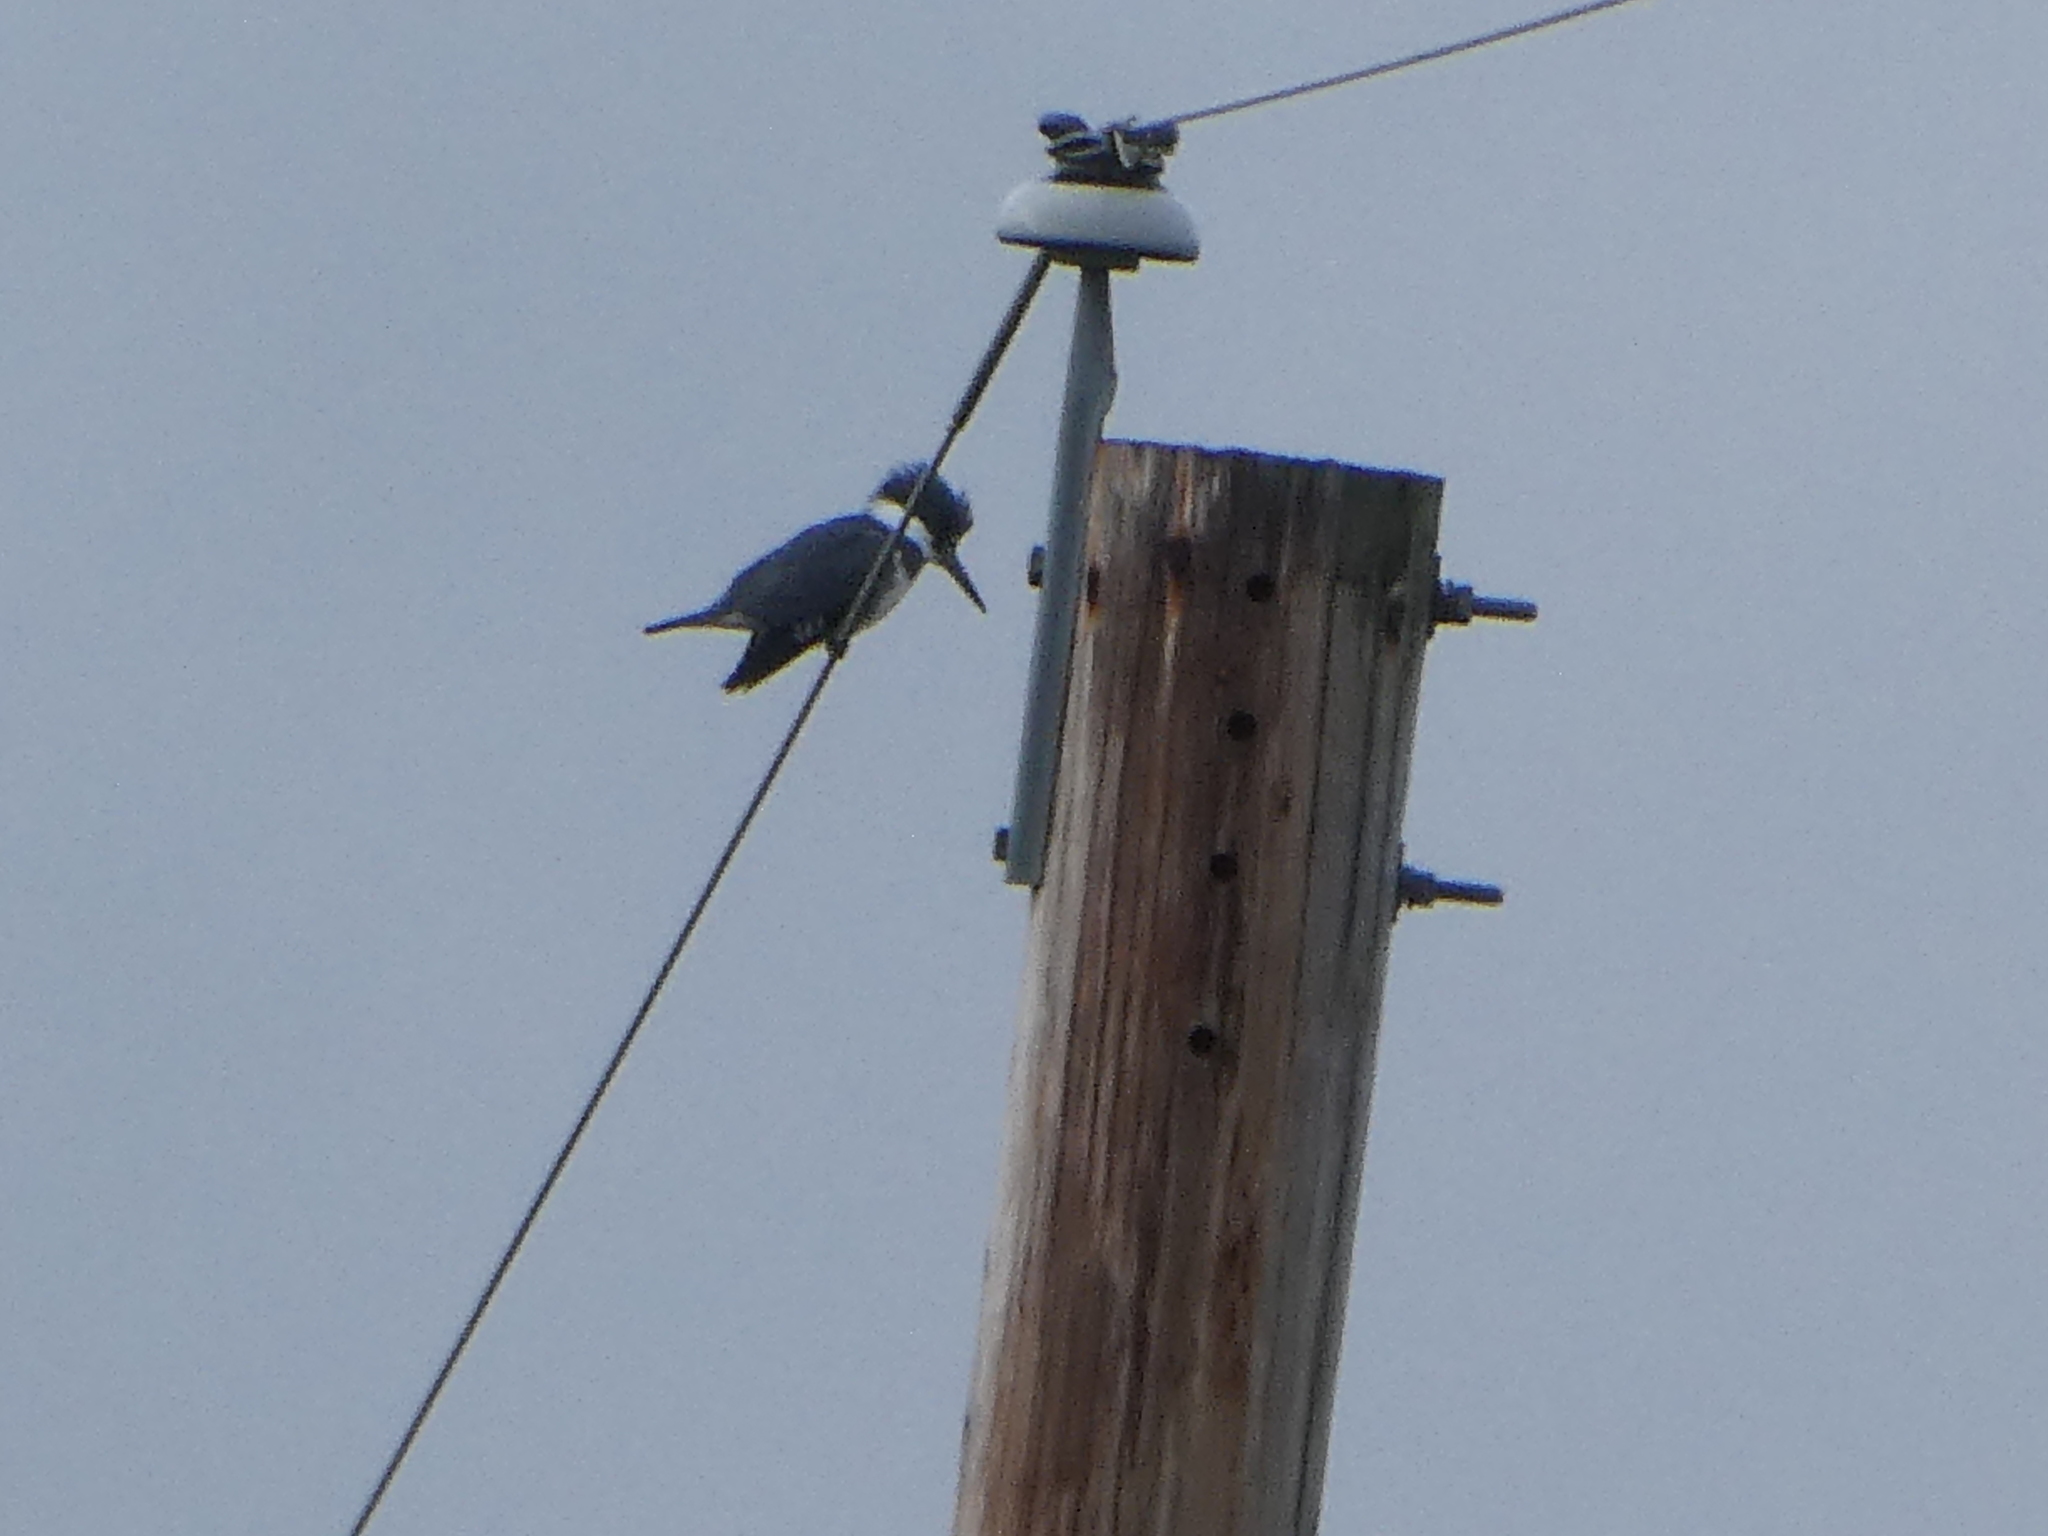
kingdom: Animalia
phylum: Chordata
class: Aves
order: Coraciiformes
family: Alcedinidae
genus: Megaceryle
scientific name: Megaceryle alcyon
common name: Belted kingfisher
